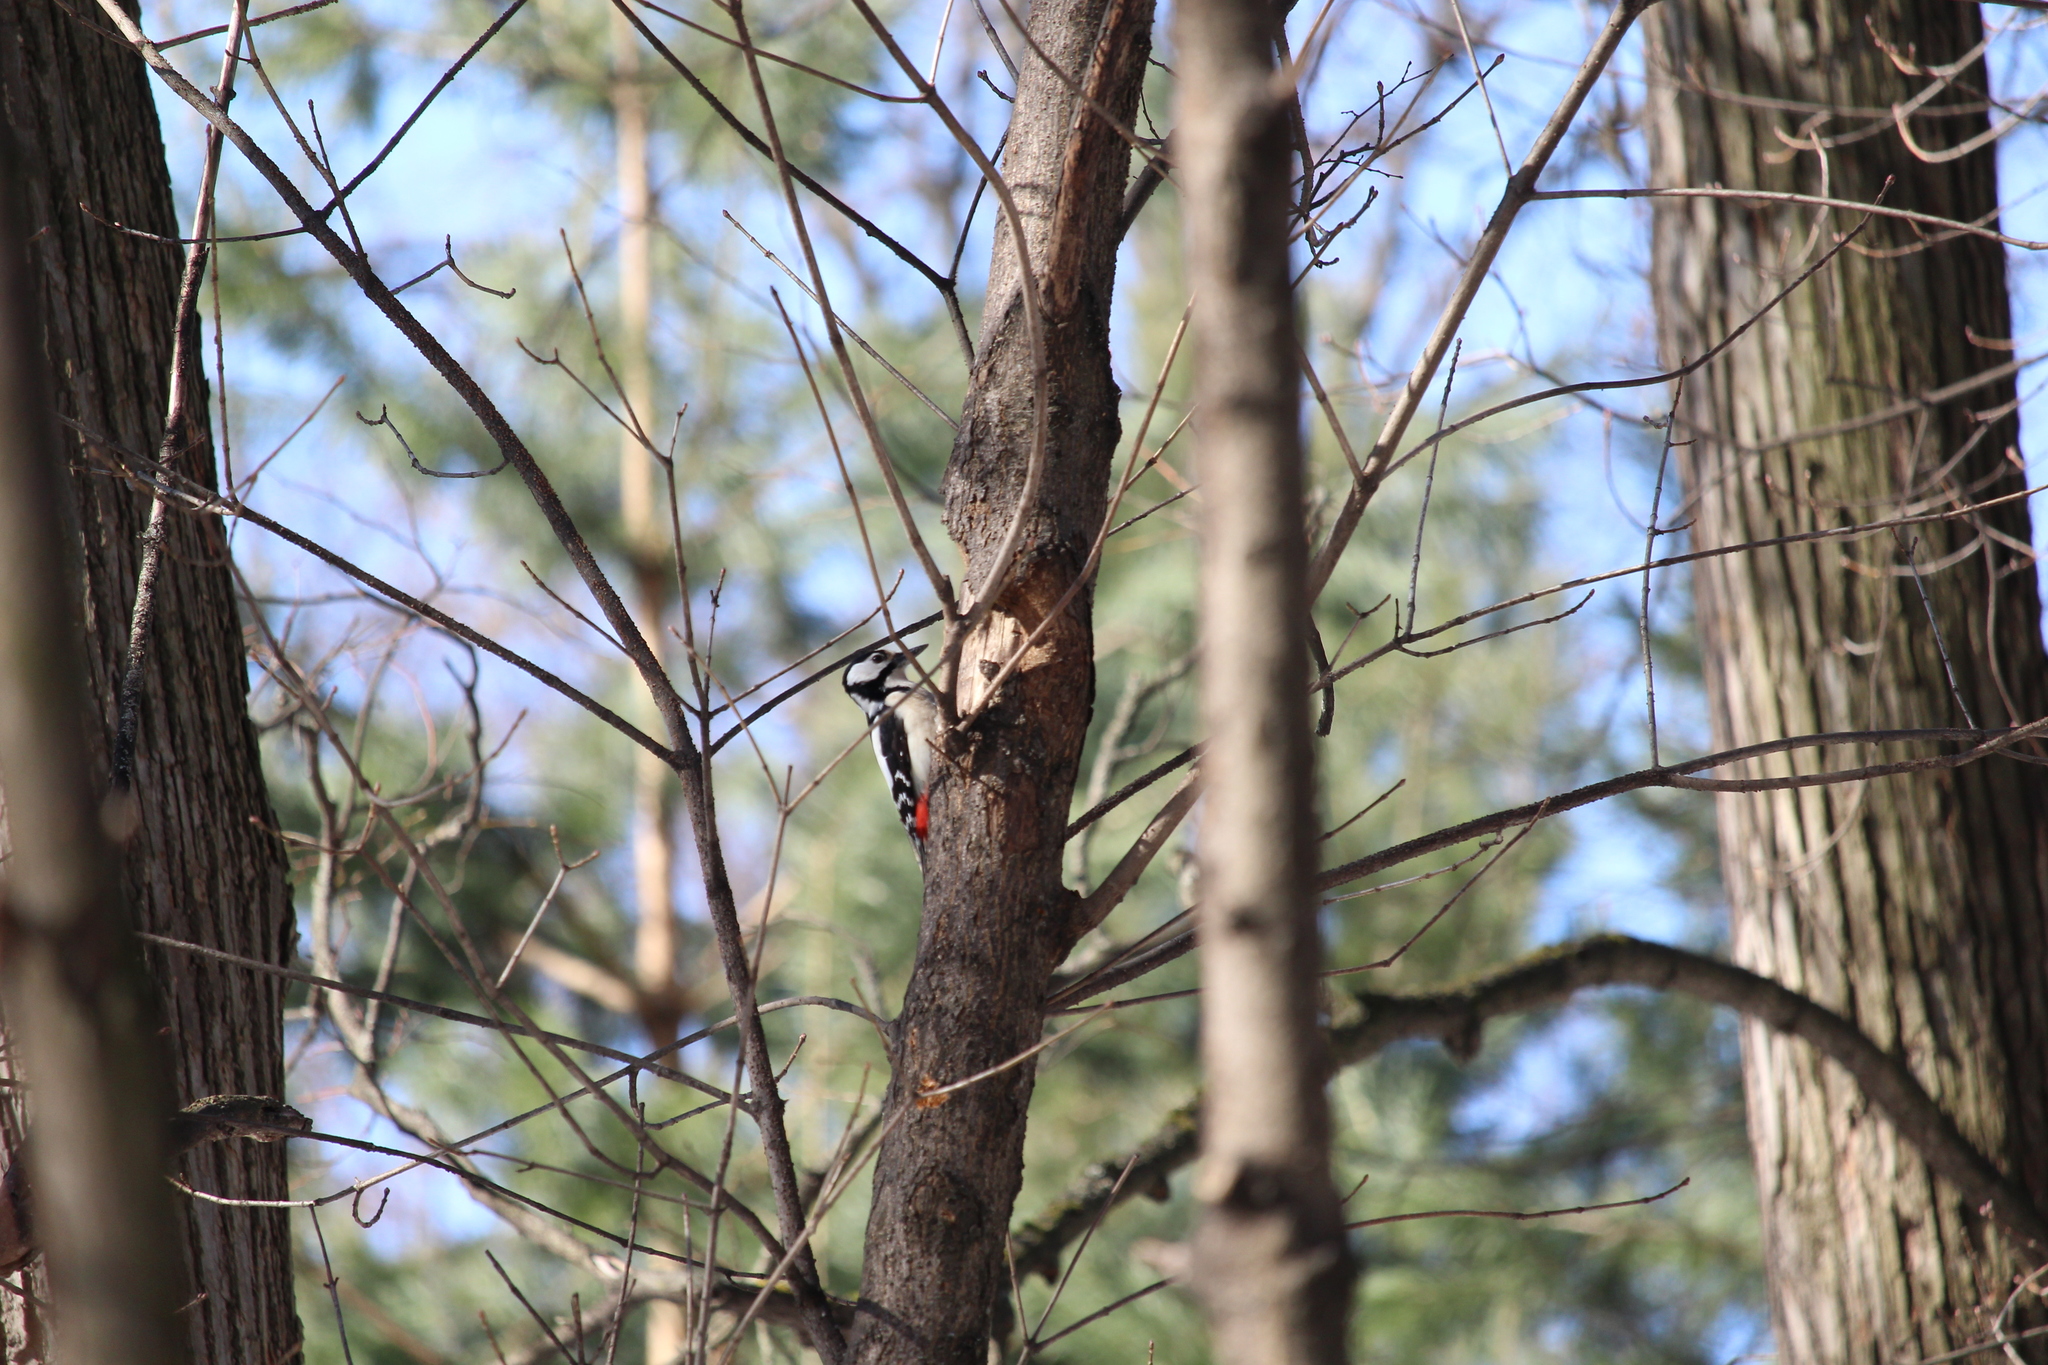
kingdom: Animalia
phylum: Chordata
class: Aves
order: Piciformes
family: Picidae
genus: Dendrocopos
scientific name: Dendrocopos major
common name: Great spotted woodpecker
